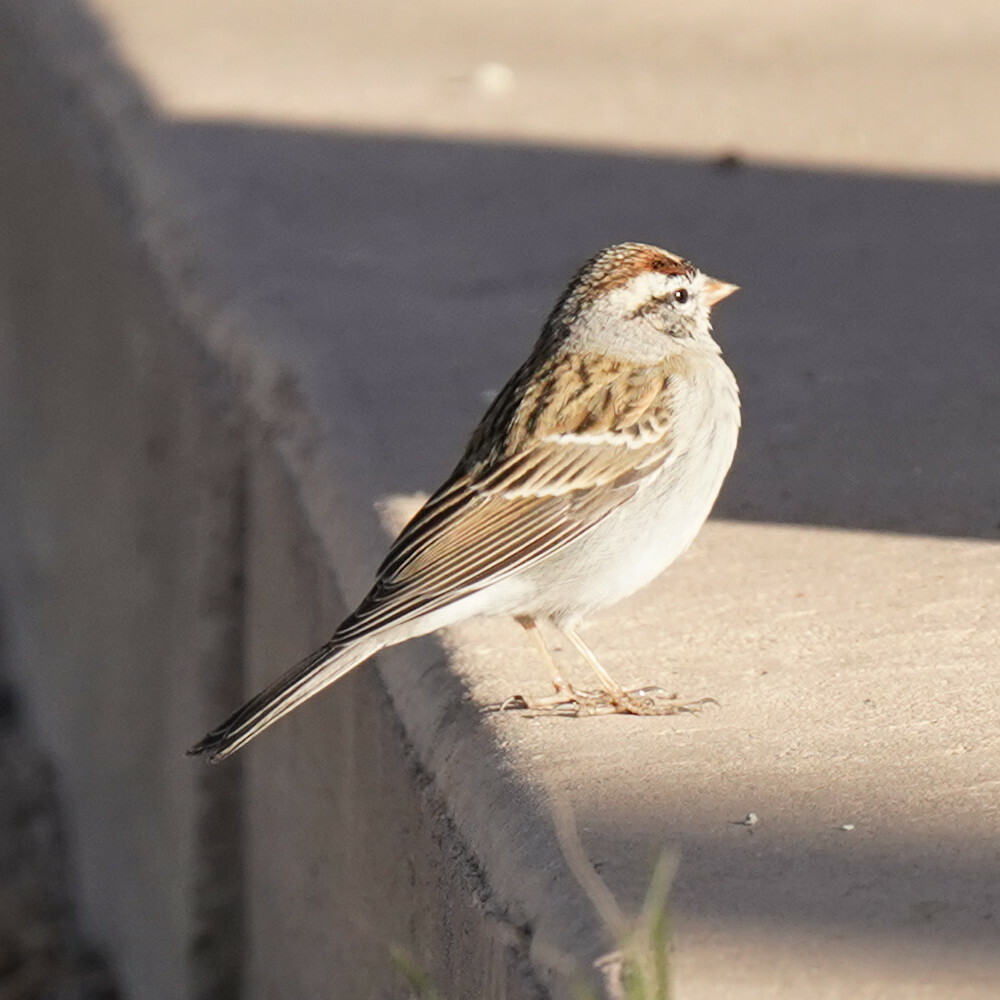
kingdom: Animalia
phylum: Chordata
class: Aves
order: Passeriformes
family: Passerellidae
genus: Spizella
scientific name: Spizella passerina
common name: Chipping sparrow
